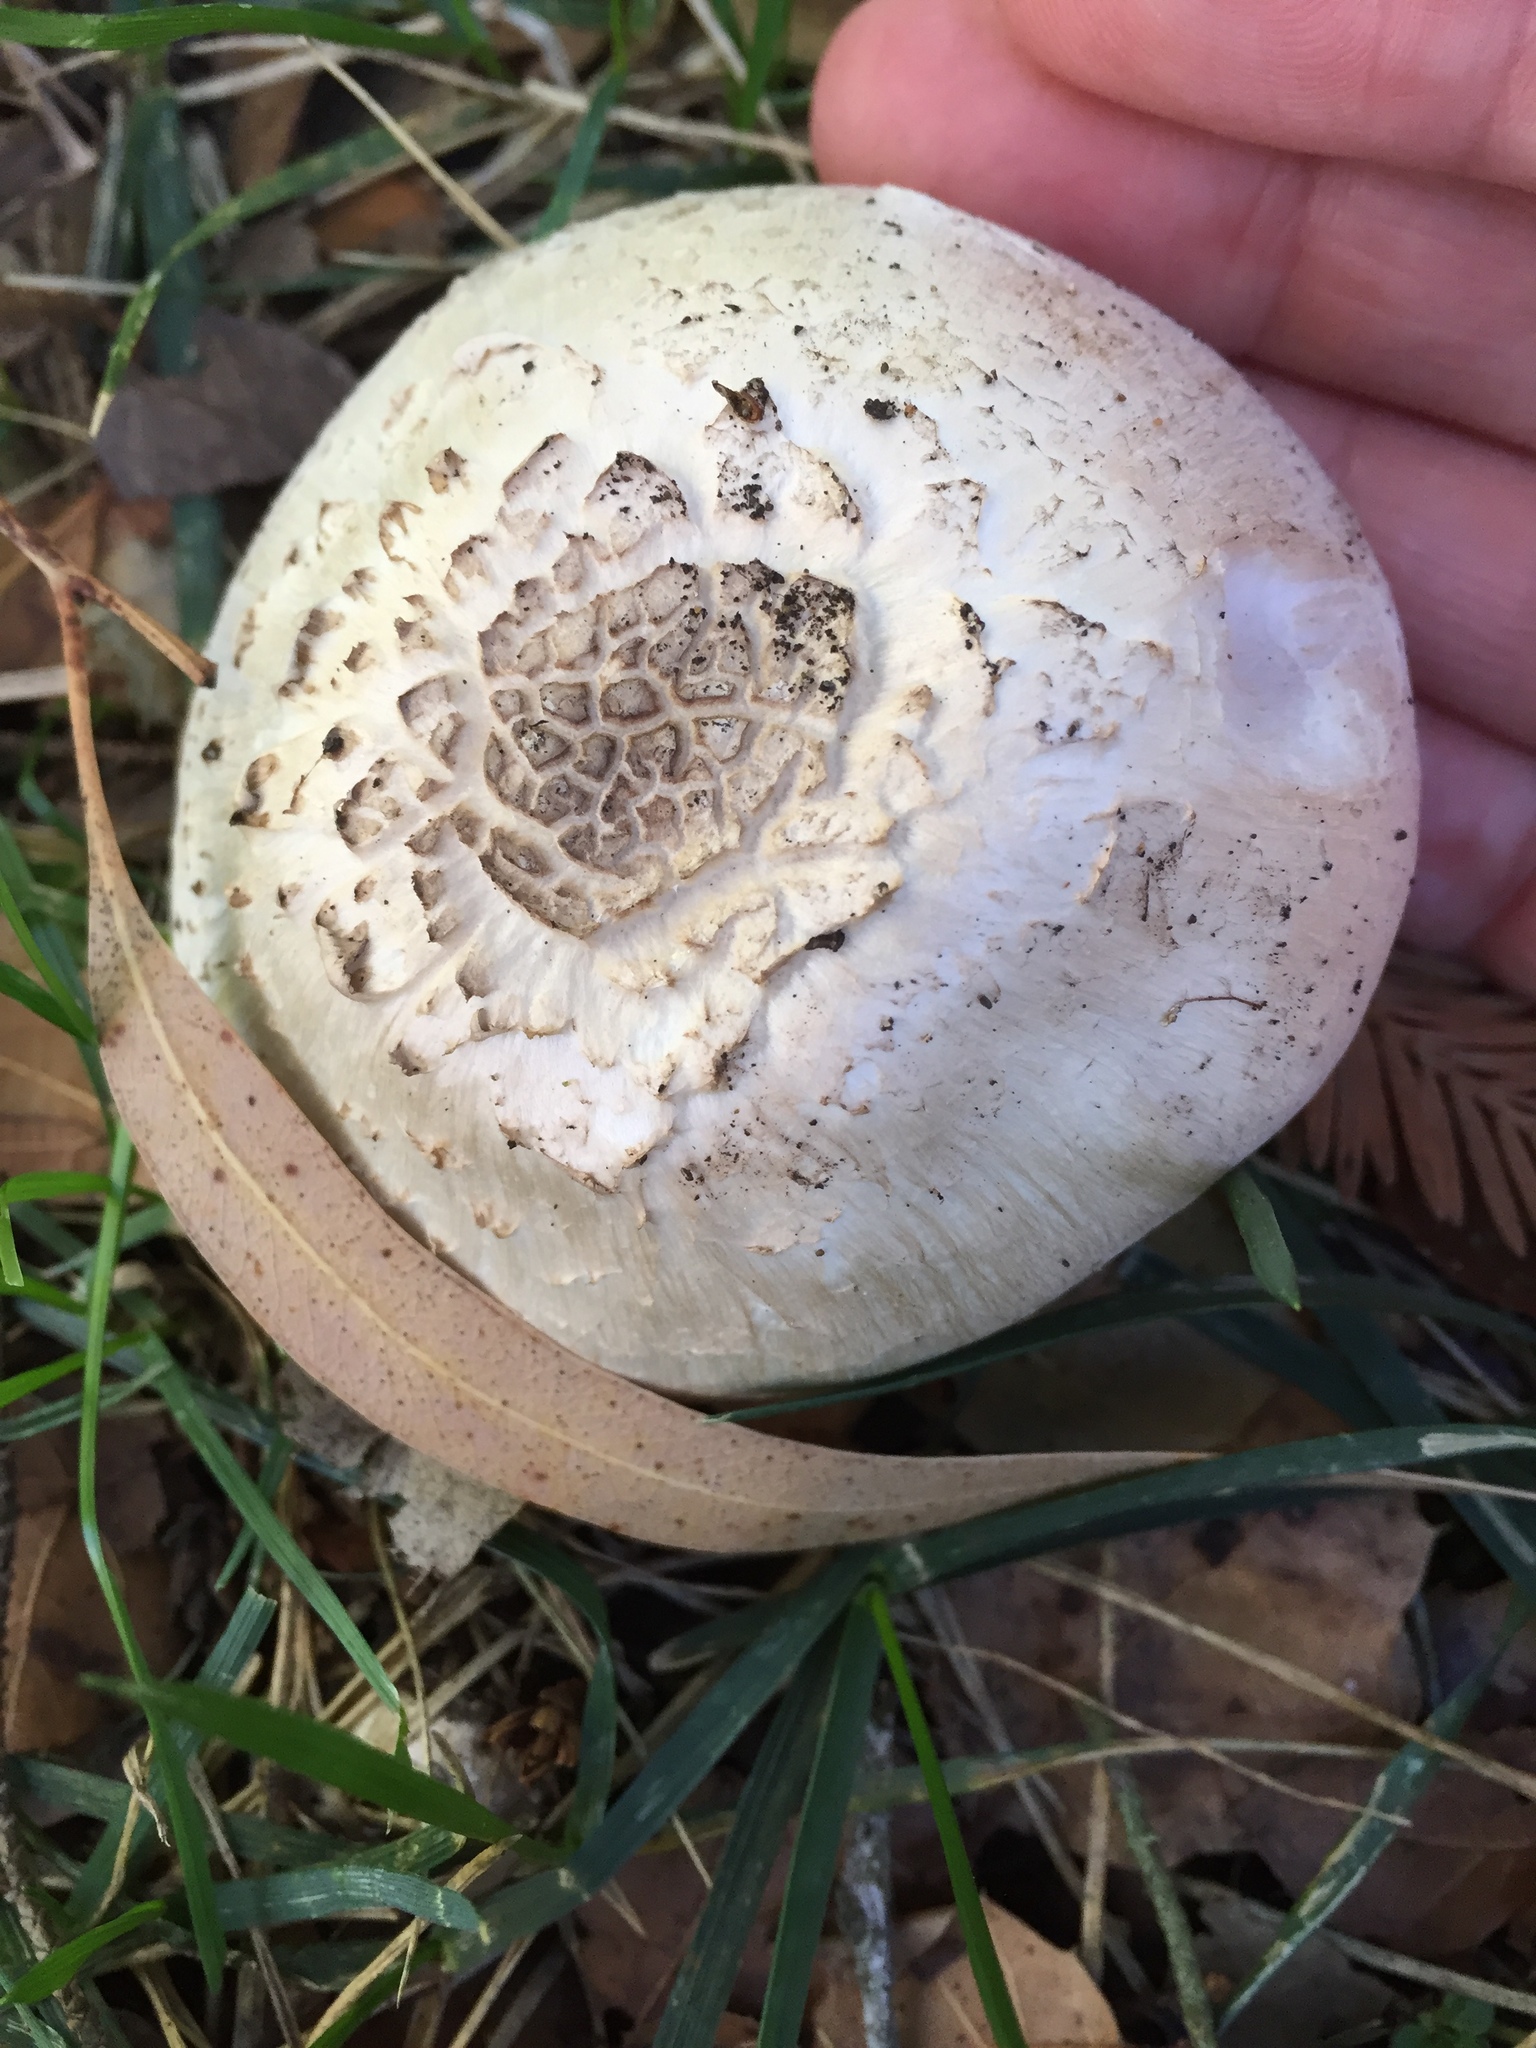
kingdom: Fungi
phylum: Basidiomycota
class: Agaricomycetes
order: Agaricales
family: Agaricaceae
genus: Agaricus
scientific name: Agaricus californicus
